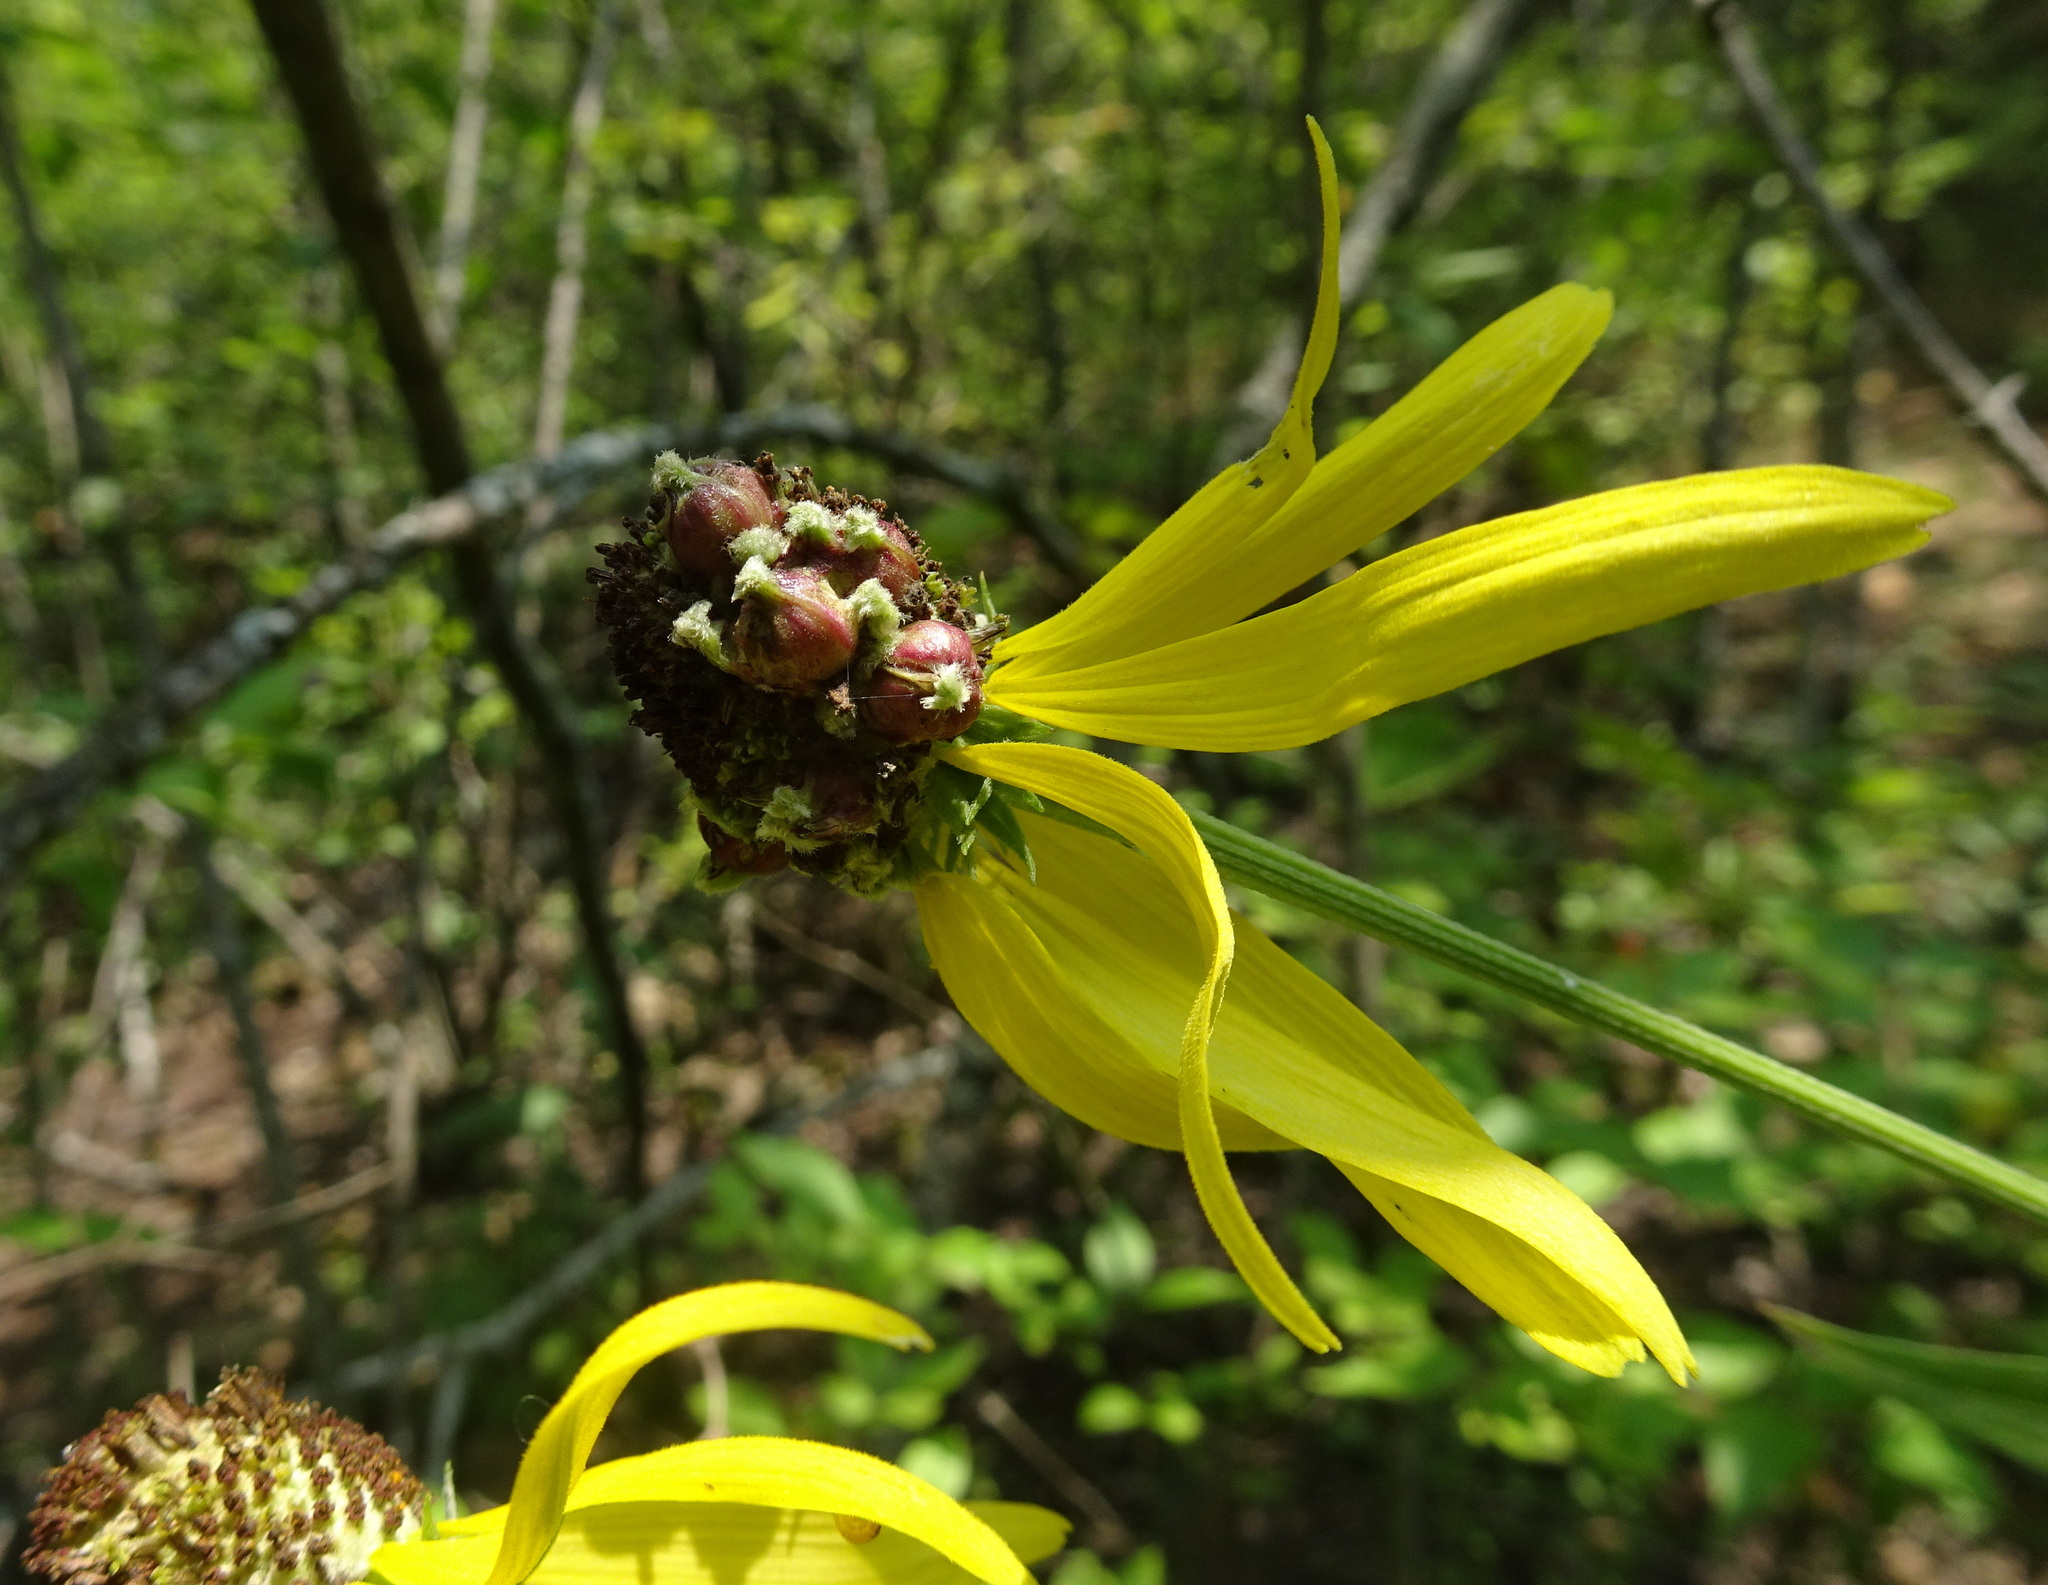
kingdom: Animalia
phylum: Arthropoda
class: Insecta
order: Diptera
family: Cecidomyiidae
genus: Asphondylia
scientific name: Asphondylia ratibidae
